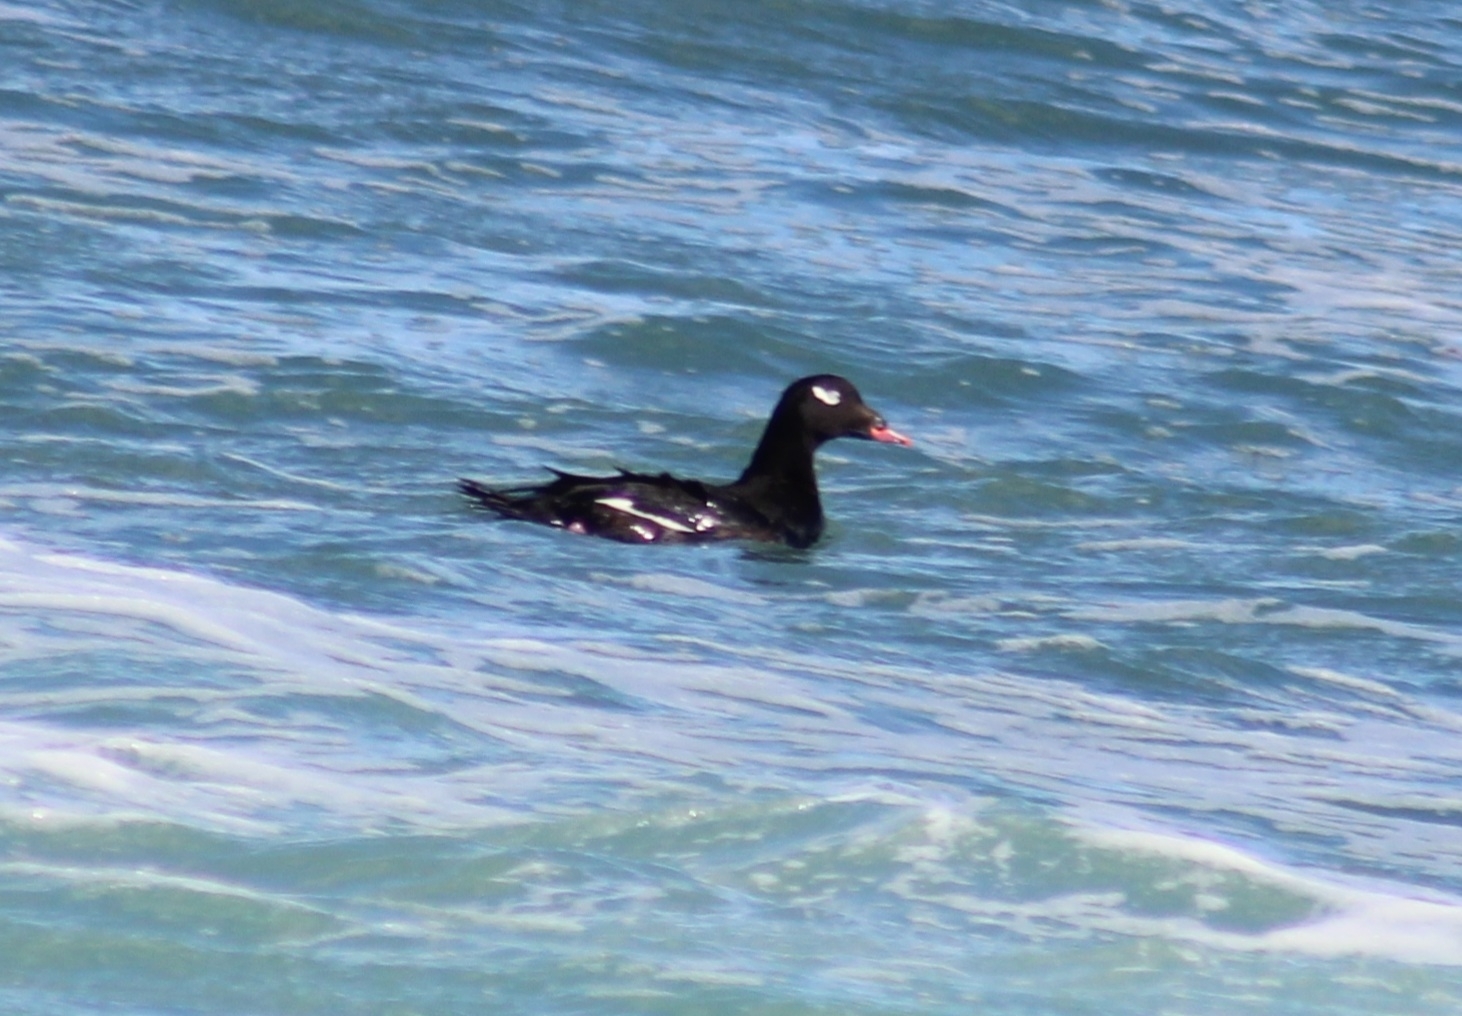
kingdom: Animalia
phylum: Chordata
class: Aves
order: Anseriformes
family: Anatidae
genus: Melanitta
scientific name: Melanitta deglandi
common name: White-winged scoter
